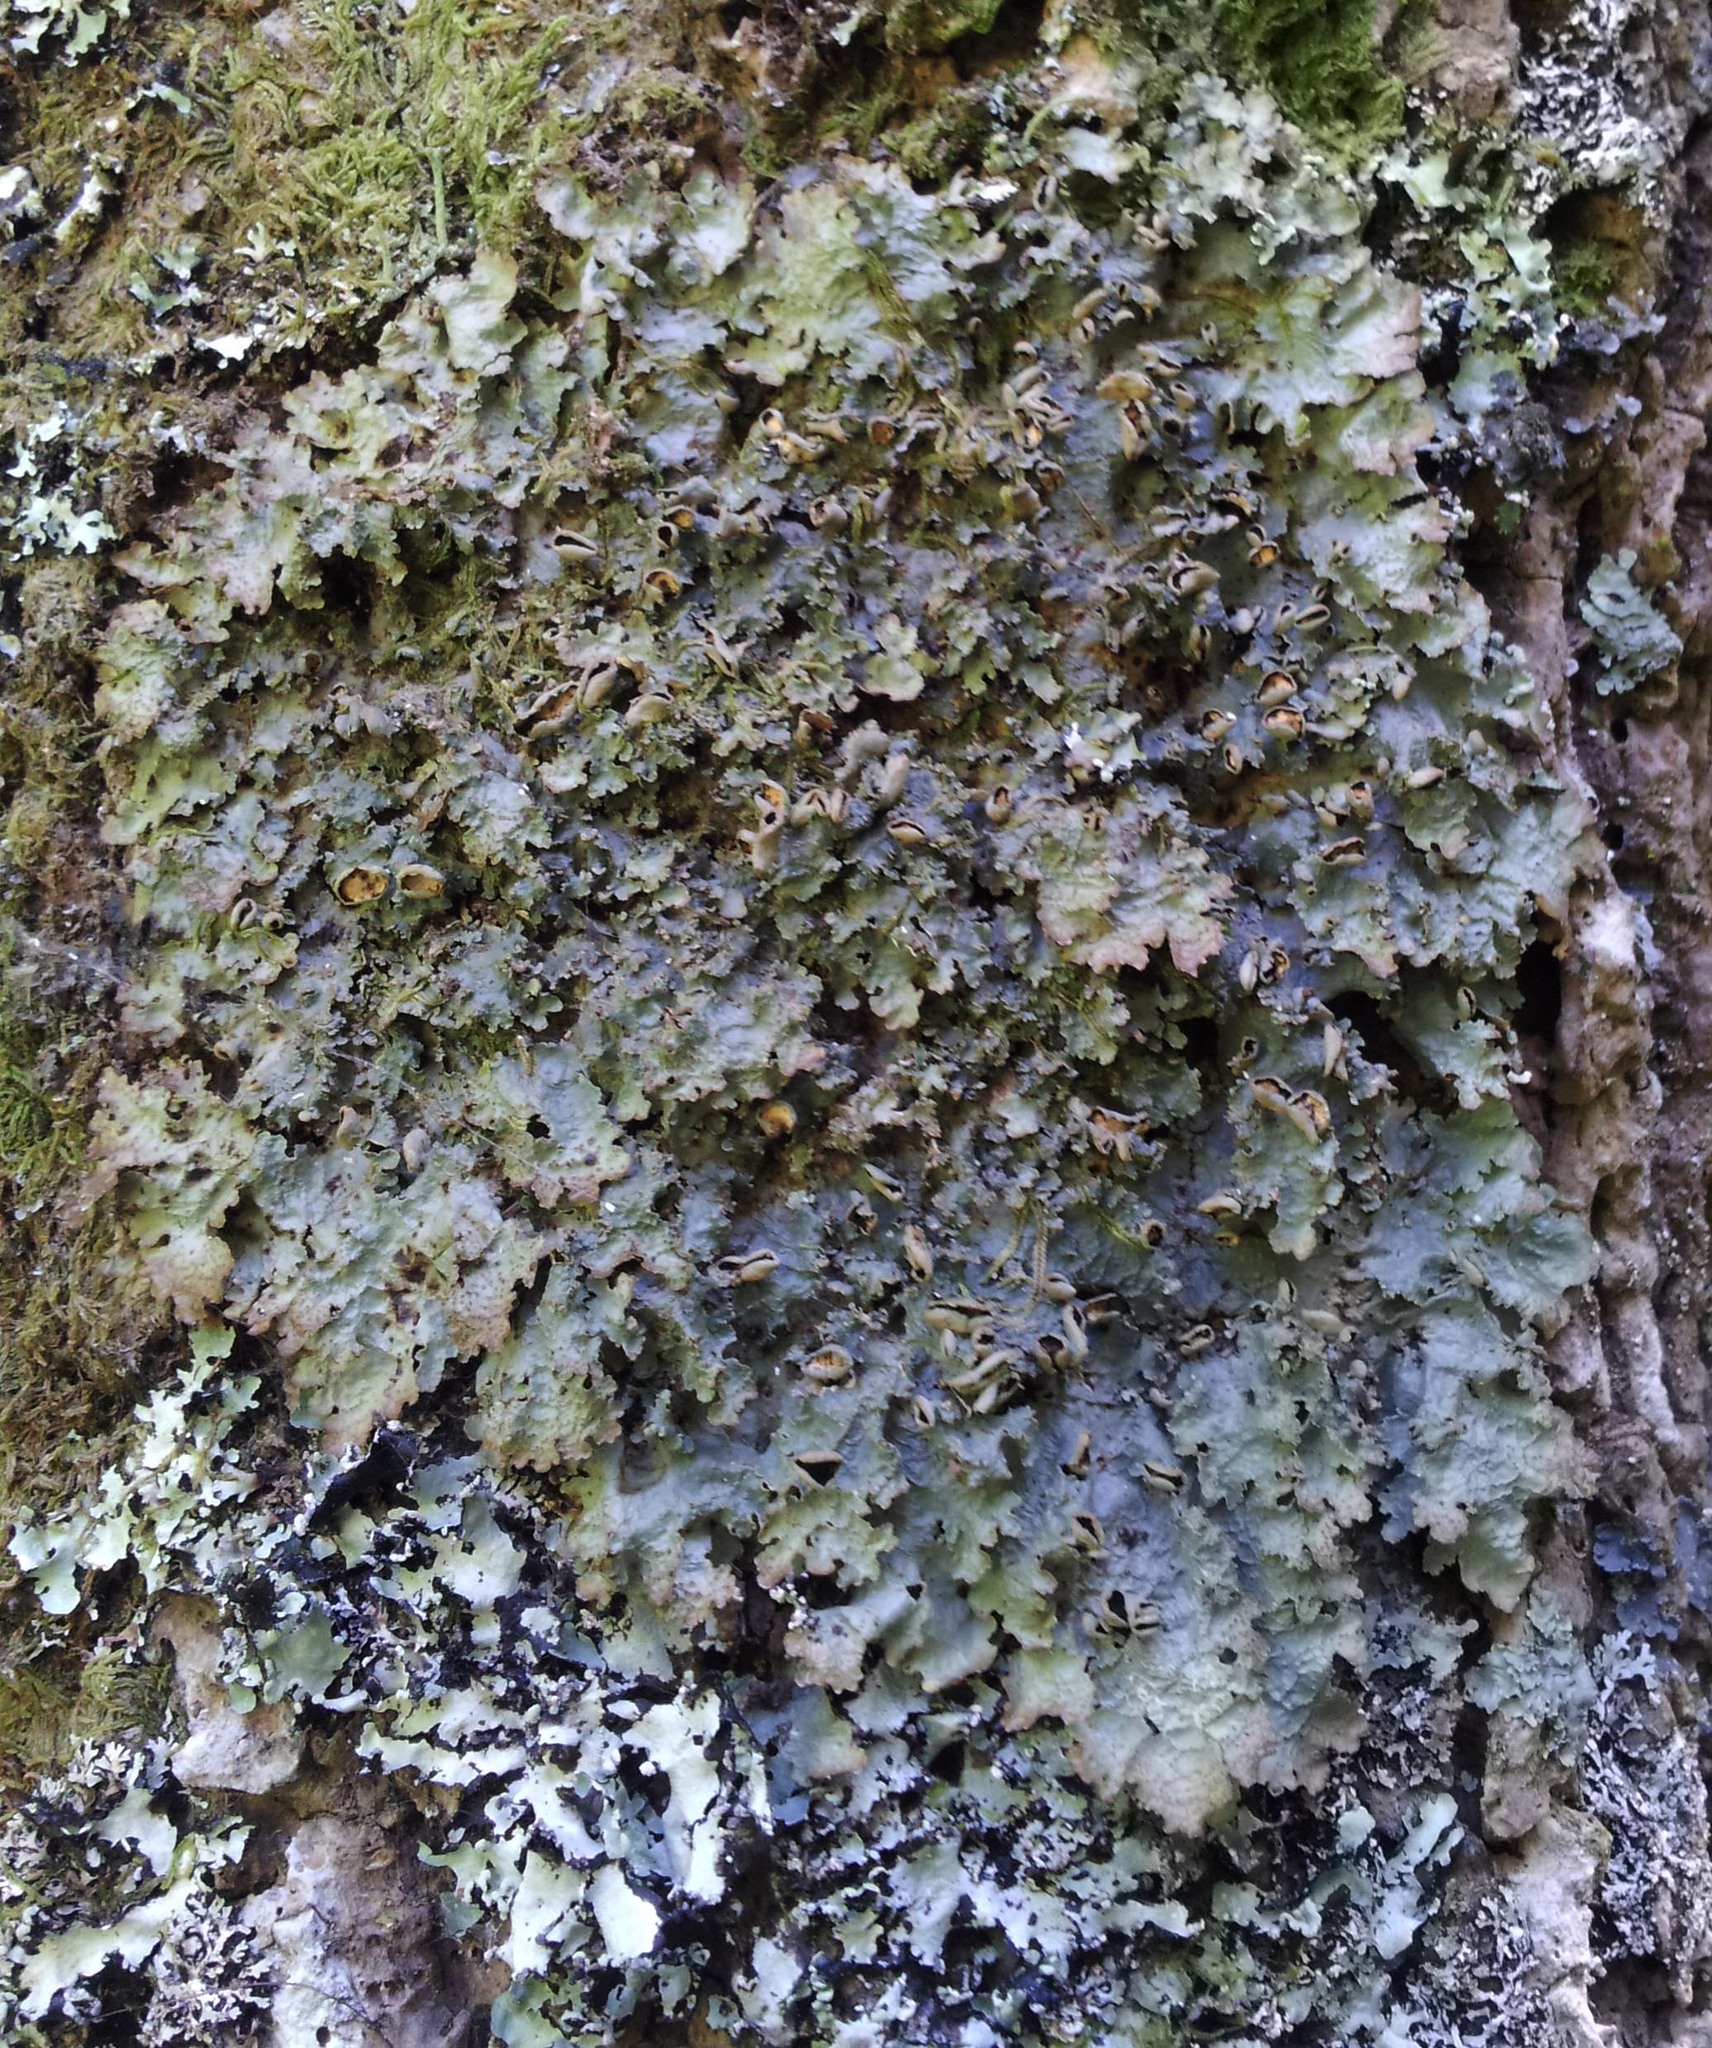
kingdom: Fungi
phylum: Ascomycota
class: Lecanoromycetes
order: Peltigerales
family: Lobariaceae
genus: Pseudocyphellaria
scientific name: Pseudocyphellaria montagnei
